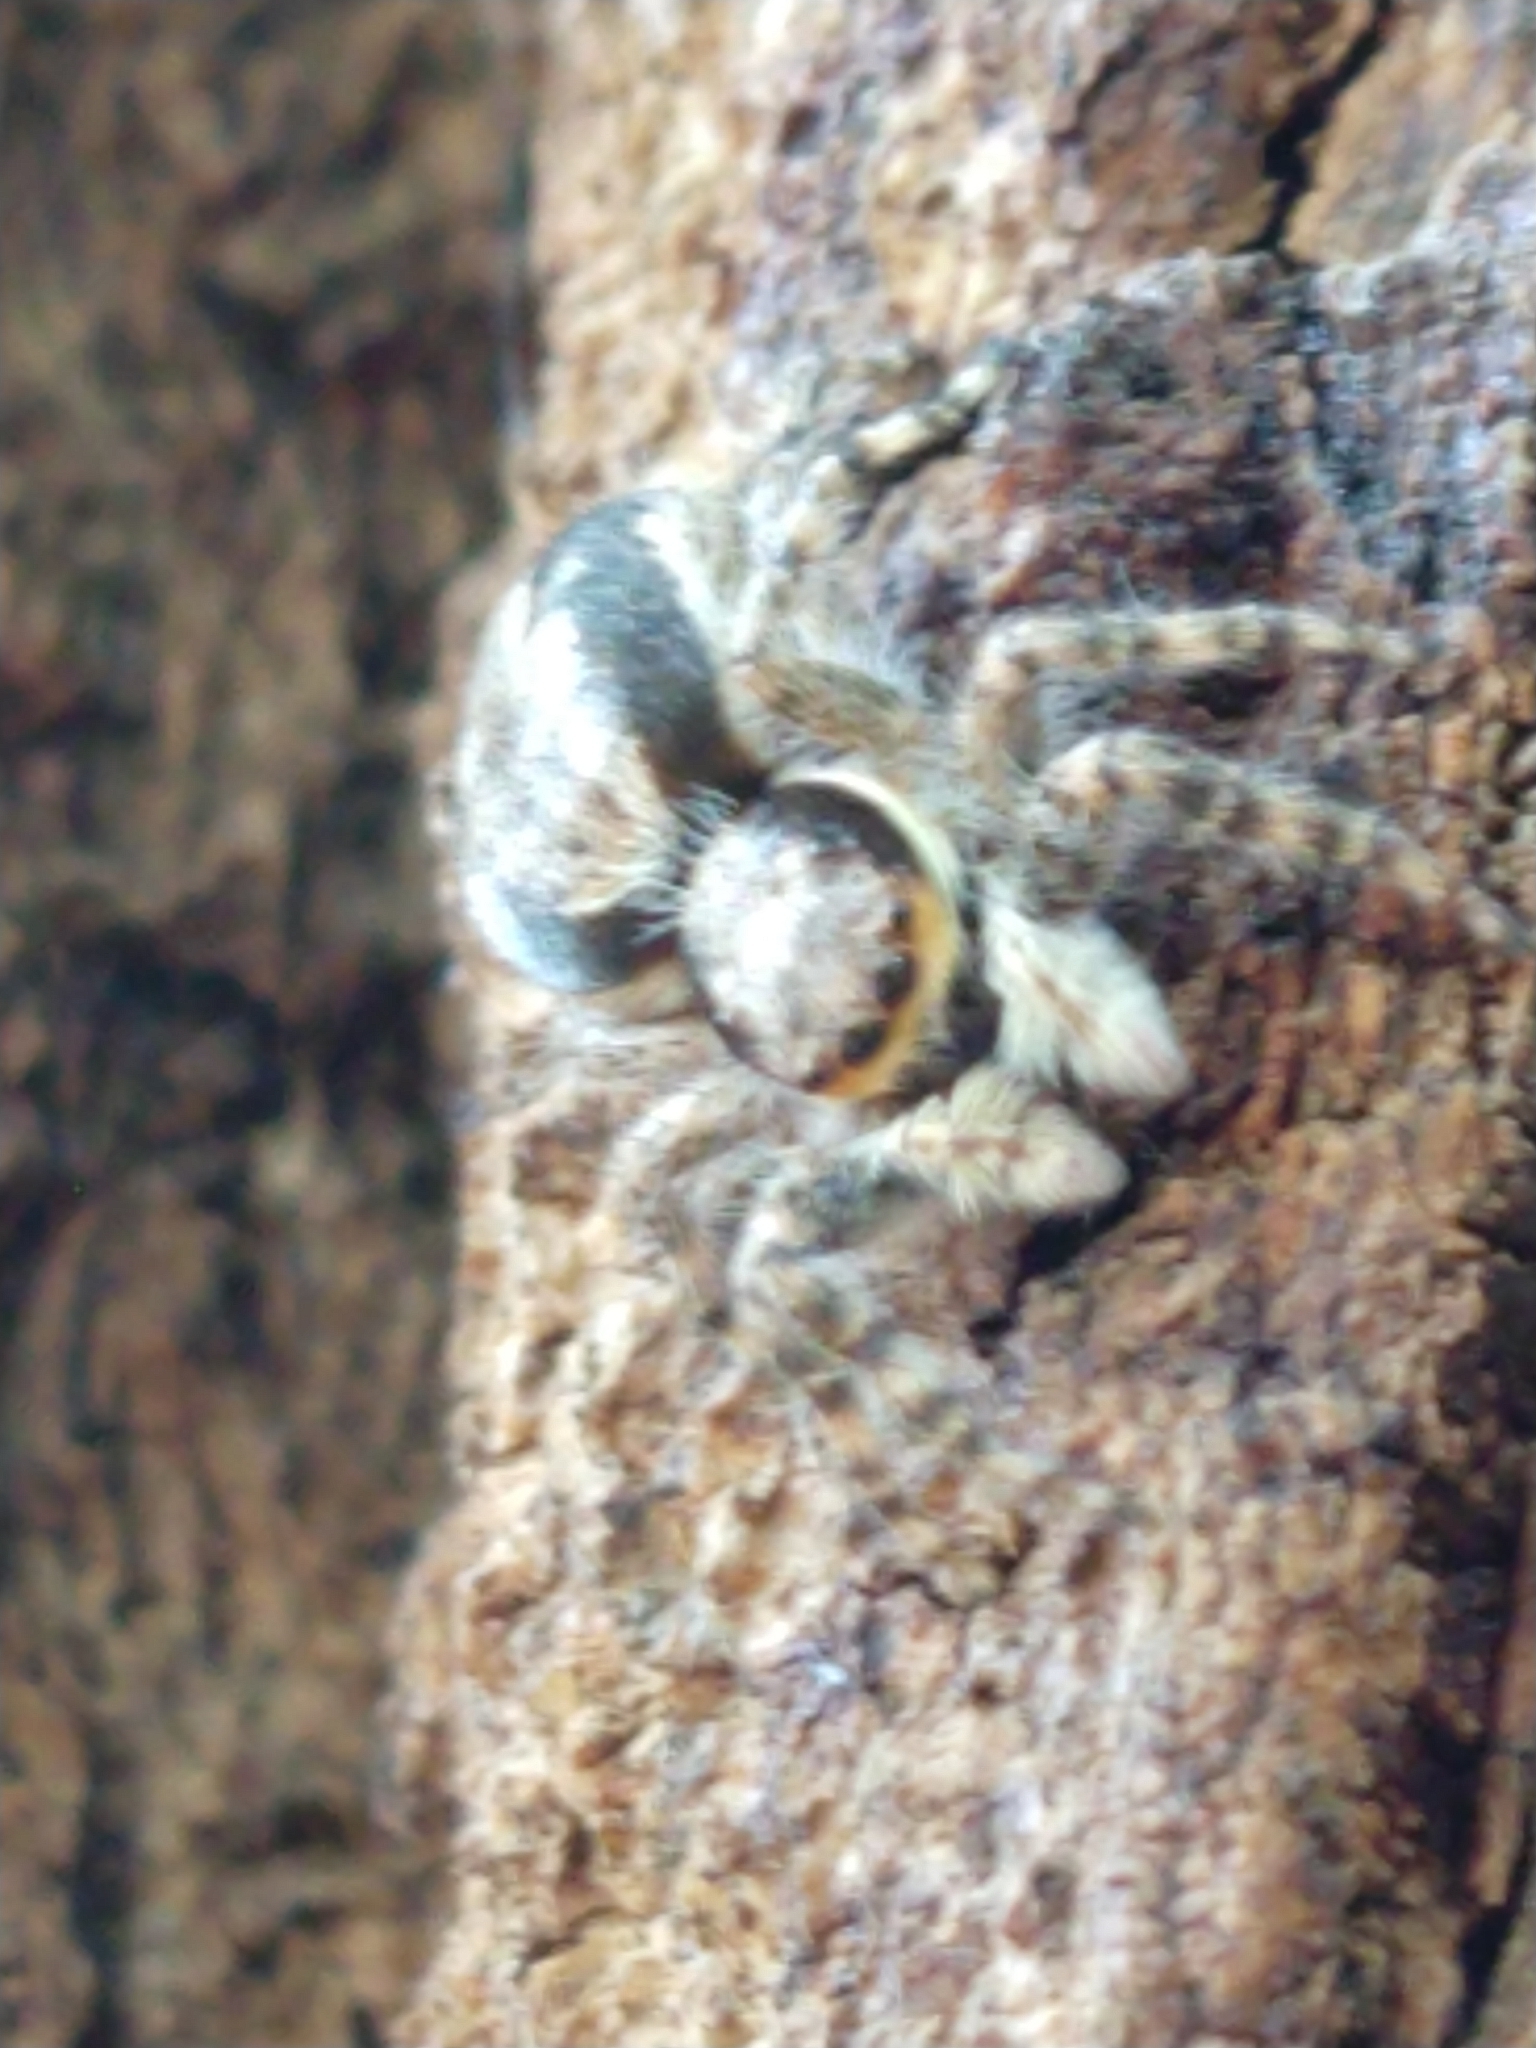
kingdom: Animalia
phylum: Arthropoda
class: Arachnida
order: Araneae
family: Salticidae
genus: Menemerus
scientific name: Menemerus bivittatus
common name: Gray wall jumper
